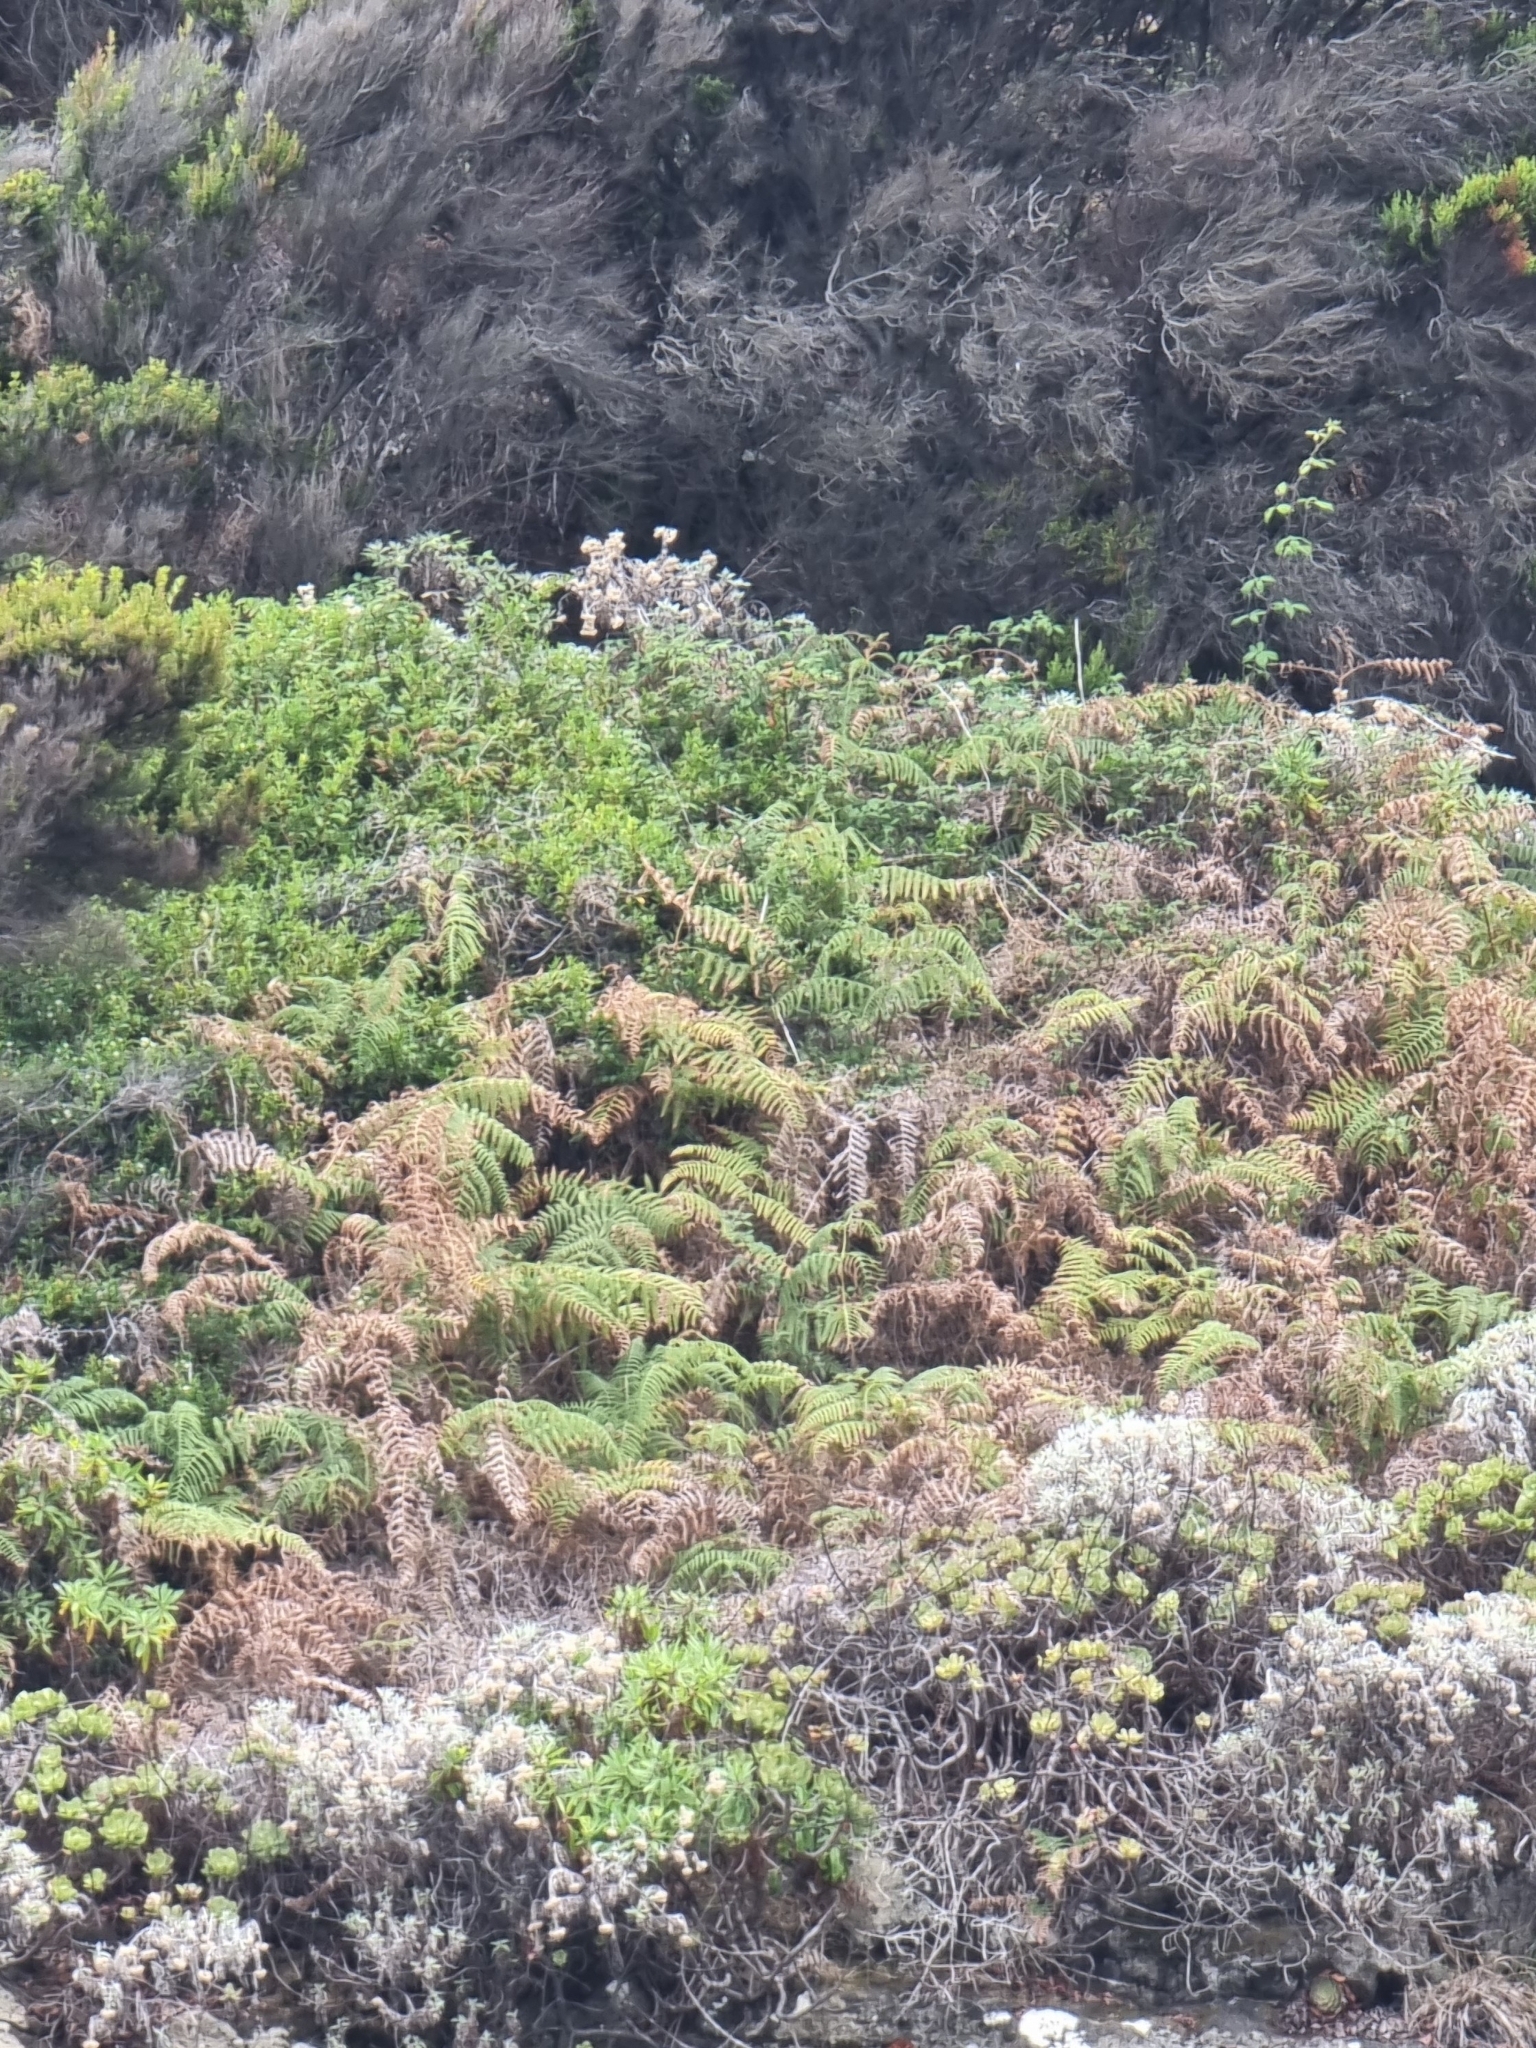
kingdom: Plantae
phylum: Tracheophyta
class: Polypodiopsida
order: Polypodiales
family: Dennstaedtiaceae
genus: Pteridium
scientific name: Pteridium aquilinum
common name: Bracken
